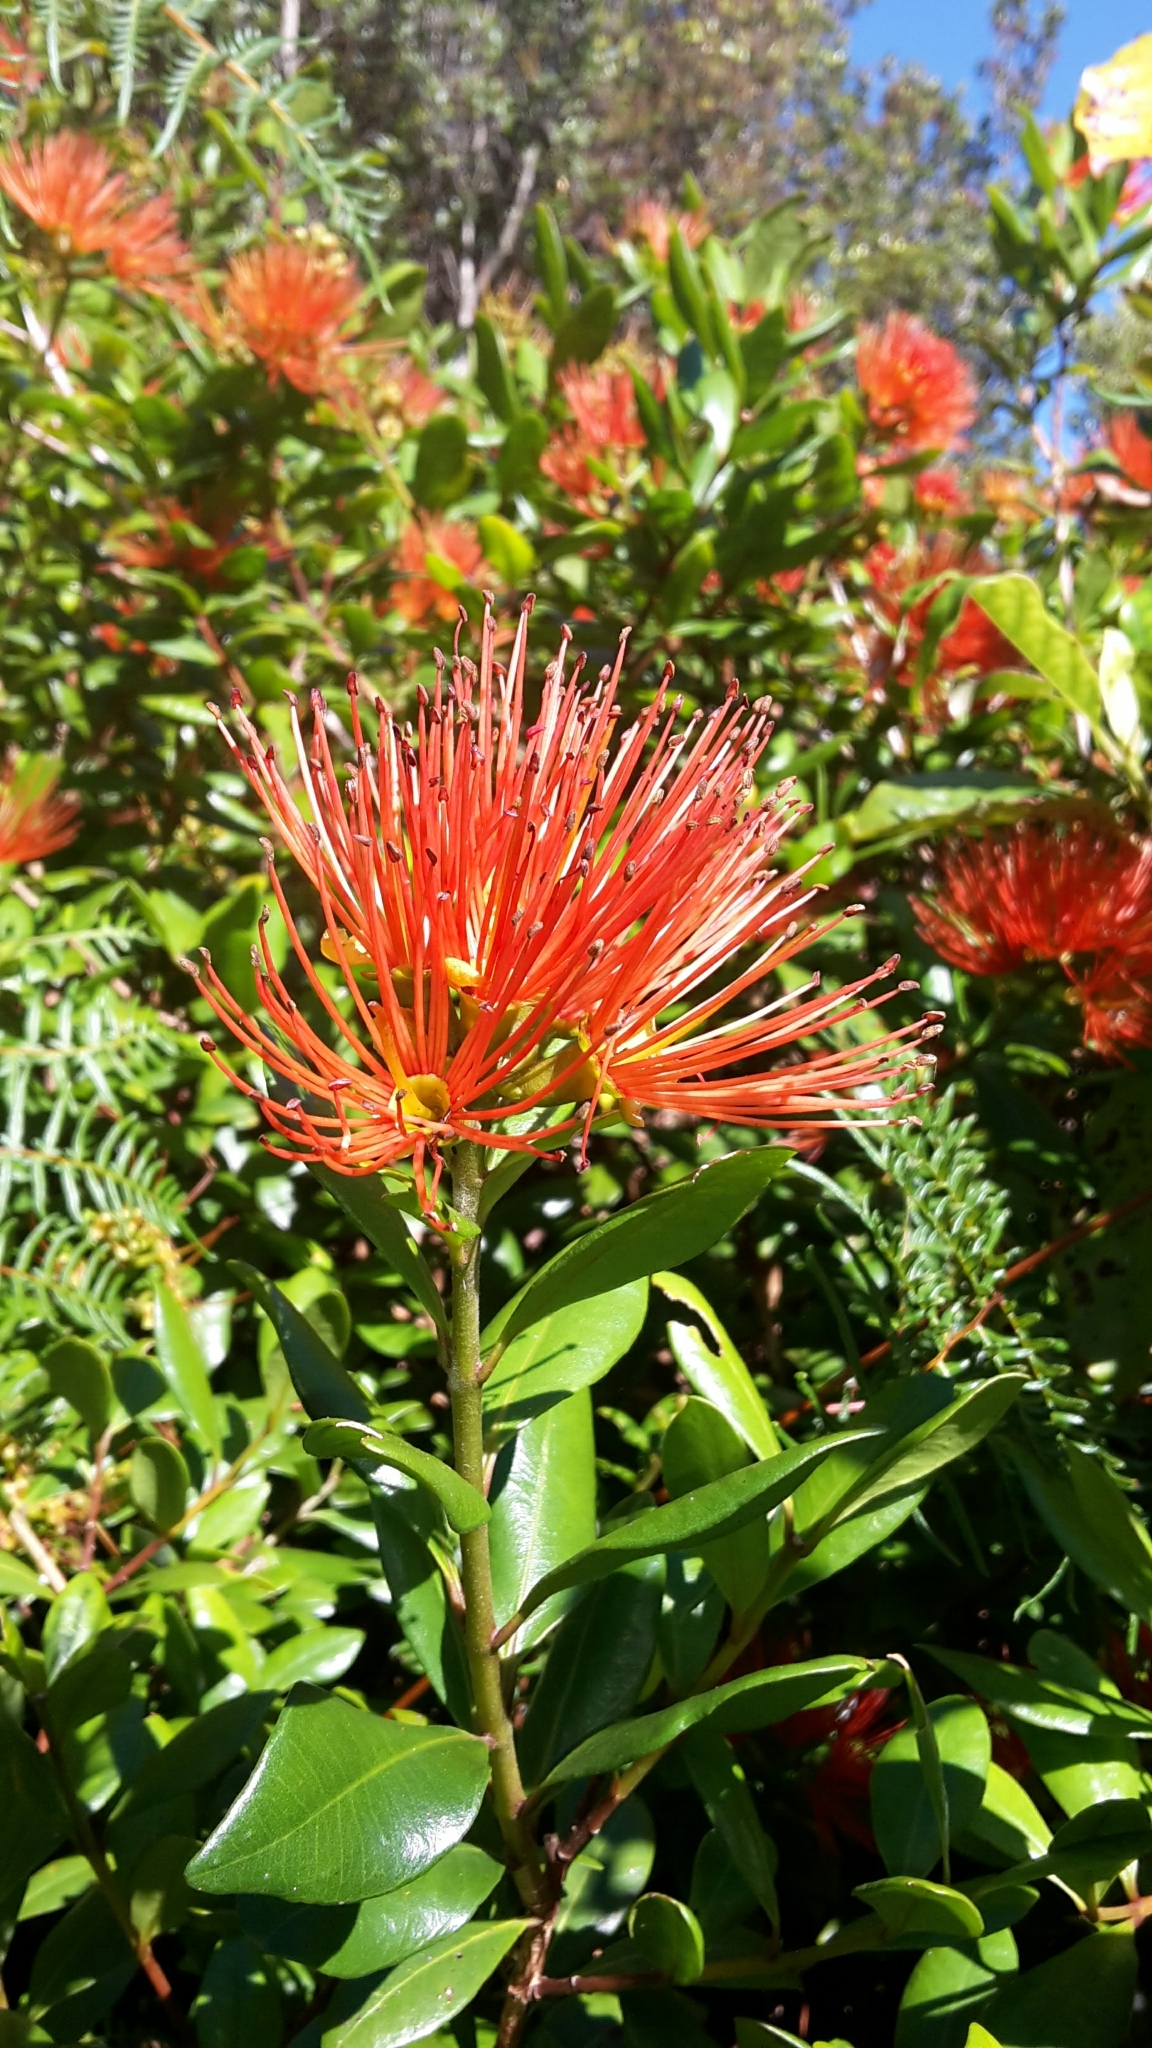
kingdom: Plantae
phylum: Tracheophyta
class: Magnoliopsida
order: Myrtales
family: Myrtaceae
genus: Metrosideros
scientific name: Metrosideros fulgens
